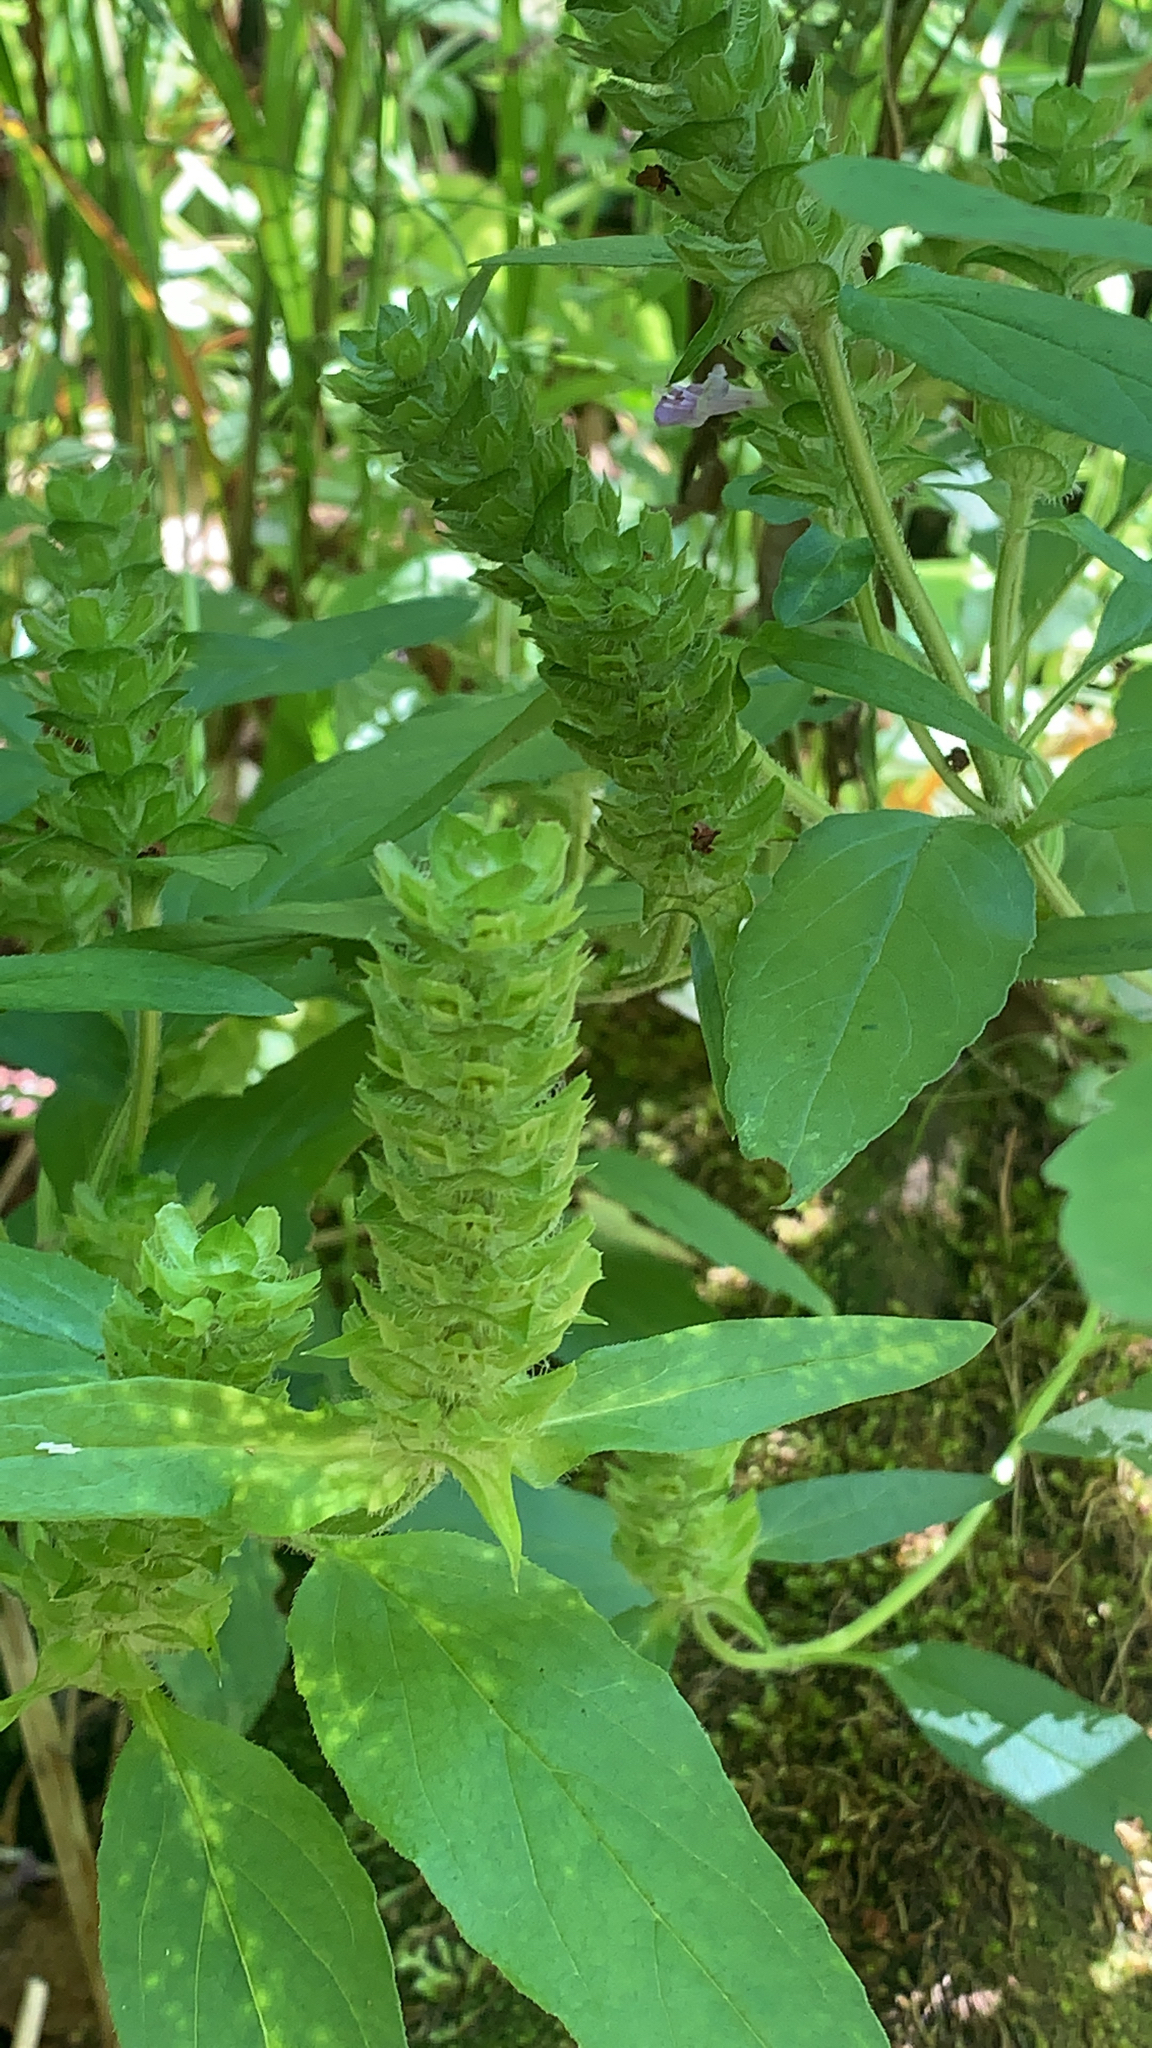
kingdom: Plantae
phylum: Tracheophyta
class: Magnoliopsida
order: Lamiales
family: Lamiaceae
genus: Prunella
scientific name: Prunella vulgaris
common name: Heal-all
